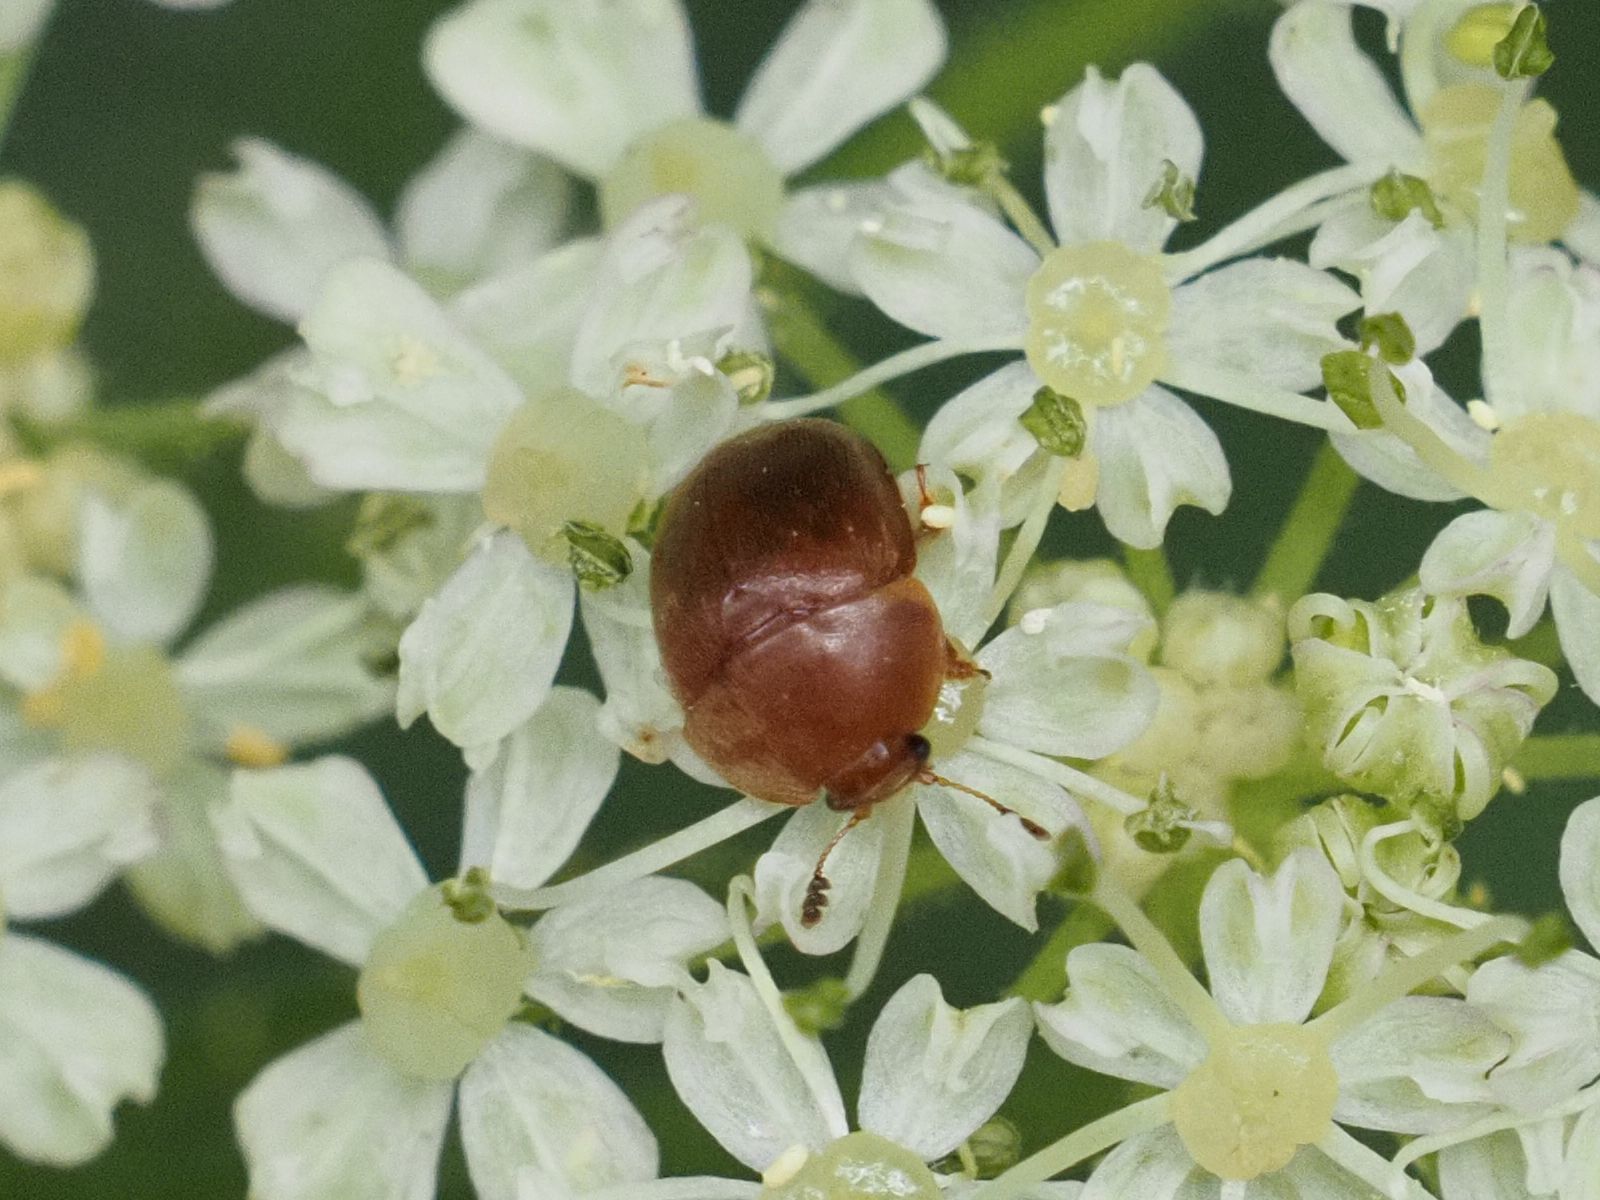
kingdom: Animalia
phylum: Arthropoda
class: Insecta
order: Coleoptera
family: Nitidulidae
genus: Cychramus
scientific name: Cychramus luteus
